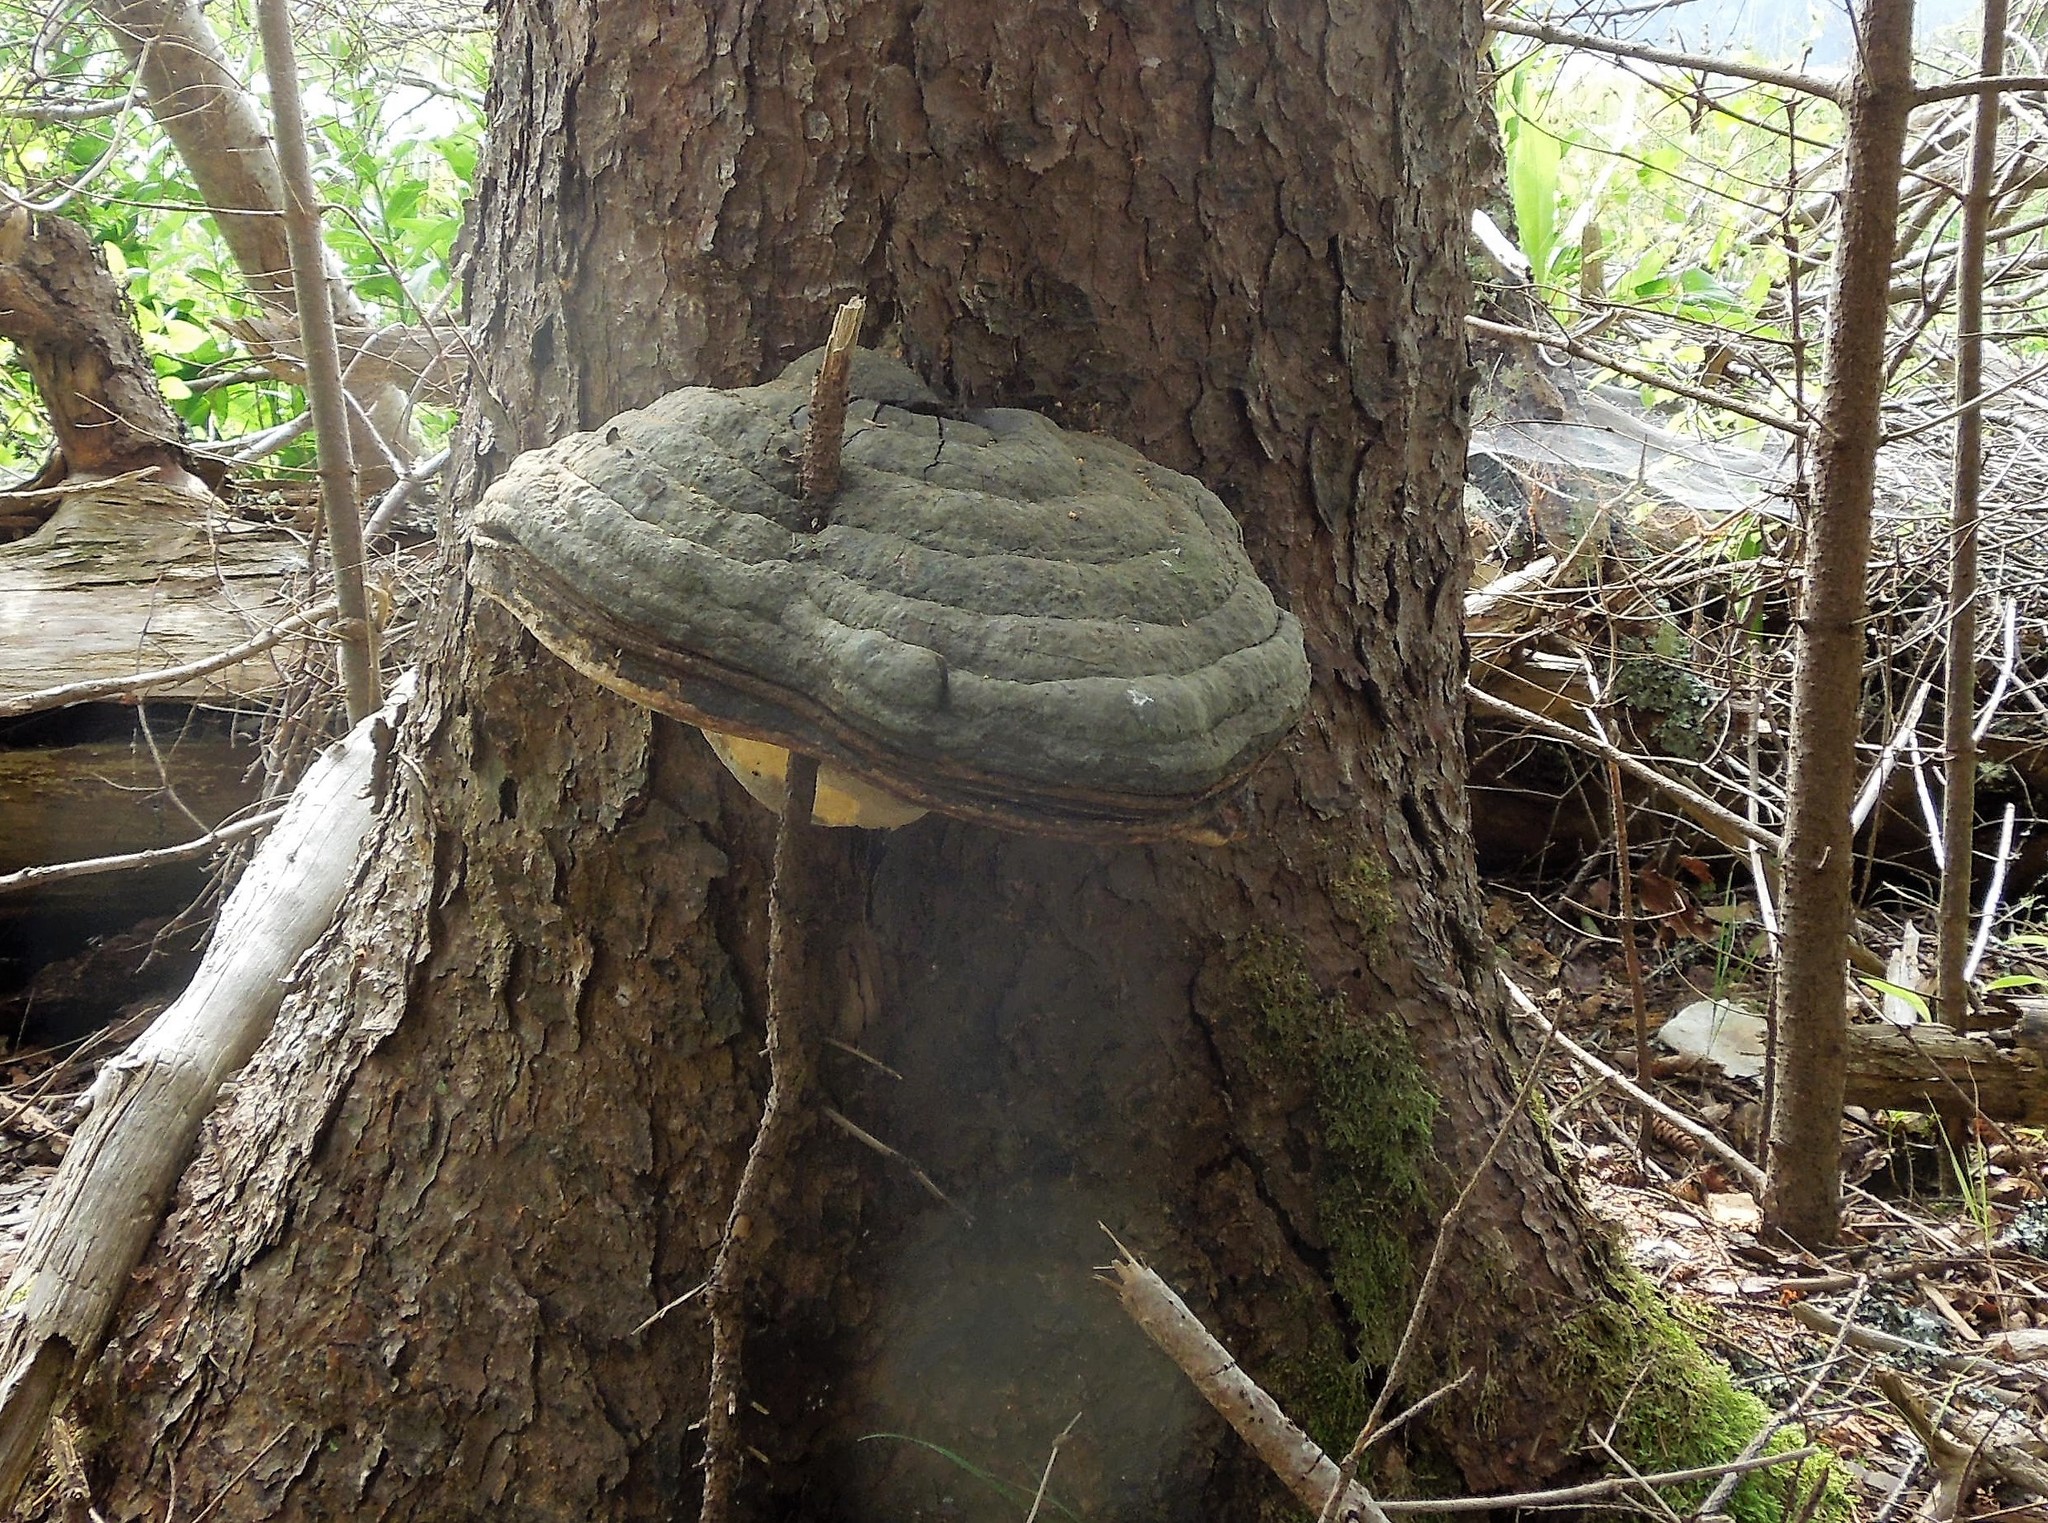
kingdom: Fungi
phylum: Basidiomycota
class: Agaricomycetes
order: Polyporales
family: Fomitopsidaceae
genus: Fomitopsis
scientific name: Fomitopsis
